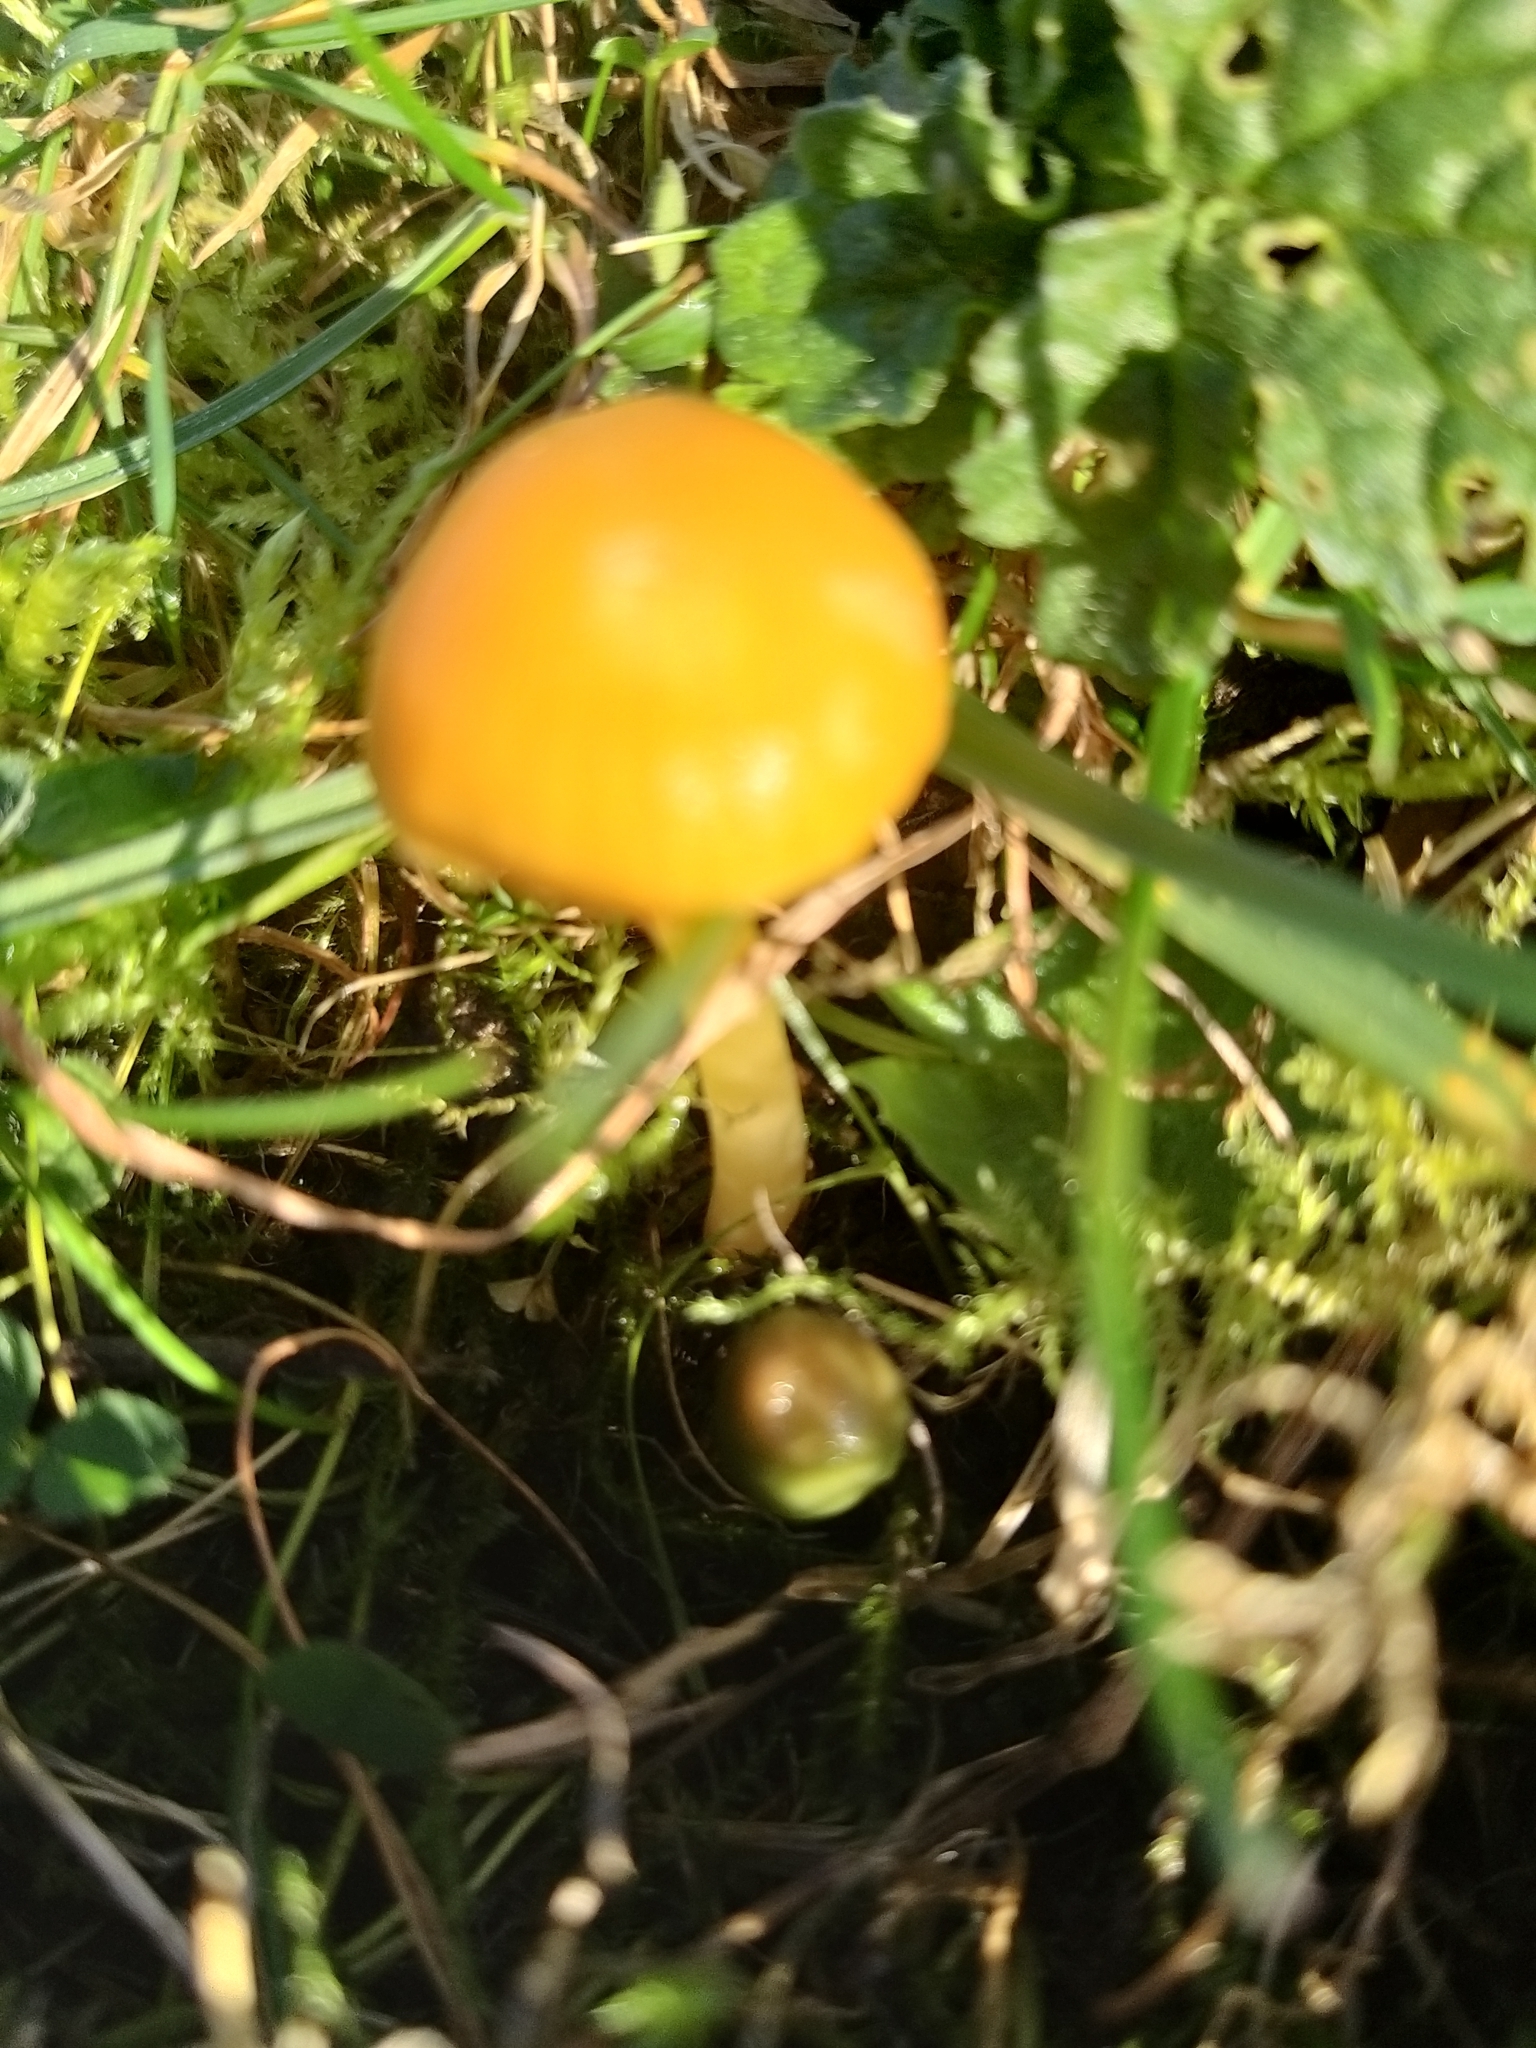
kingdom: Fungi
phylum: Basidiomycota
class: Agaricomycetes
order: Agaricales
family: Hygrophoraceae
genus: Gliophorus
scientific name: Gliophorus psittacinus
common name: Parrot wax-cap
